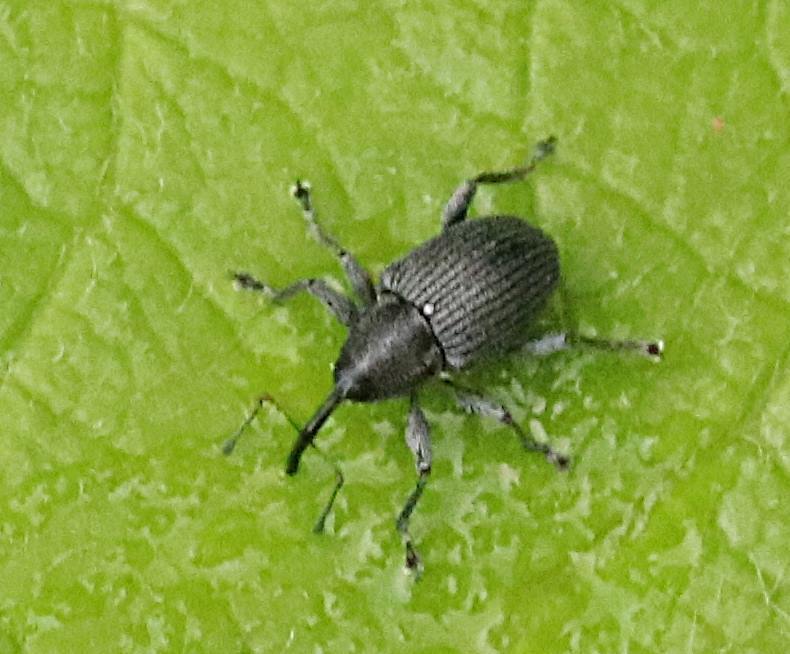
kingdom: Animalia
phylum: Arthropoda
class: Insecta
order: Coleoptera
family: Curculionidae
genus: Archarius
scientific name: Archarius salicivorus
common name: Weevil
